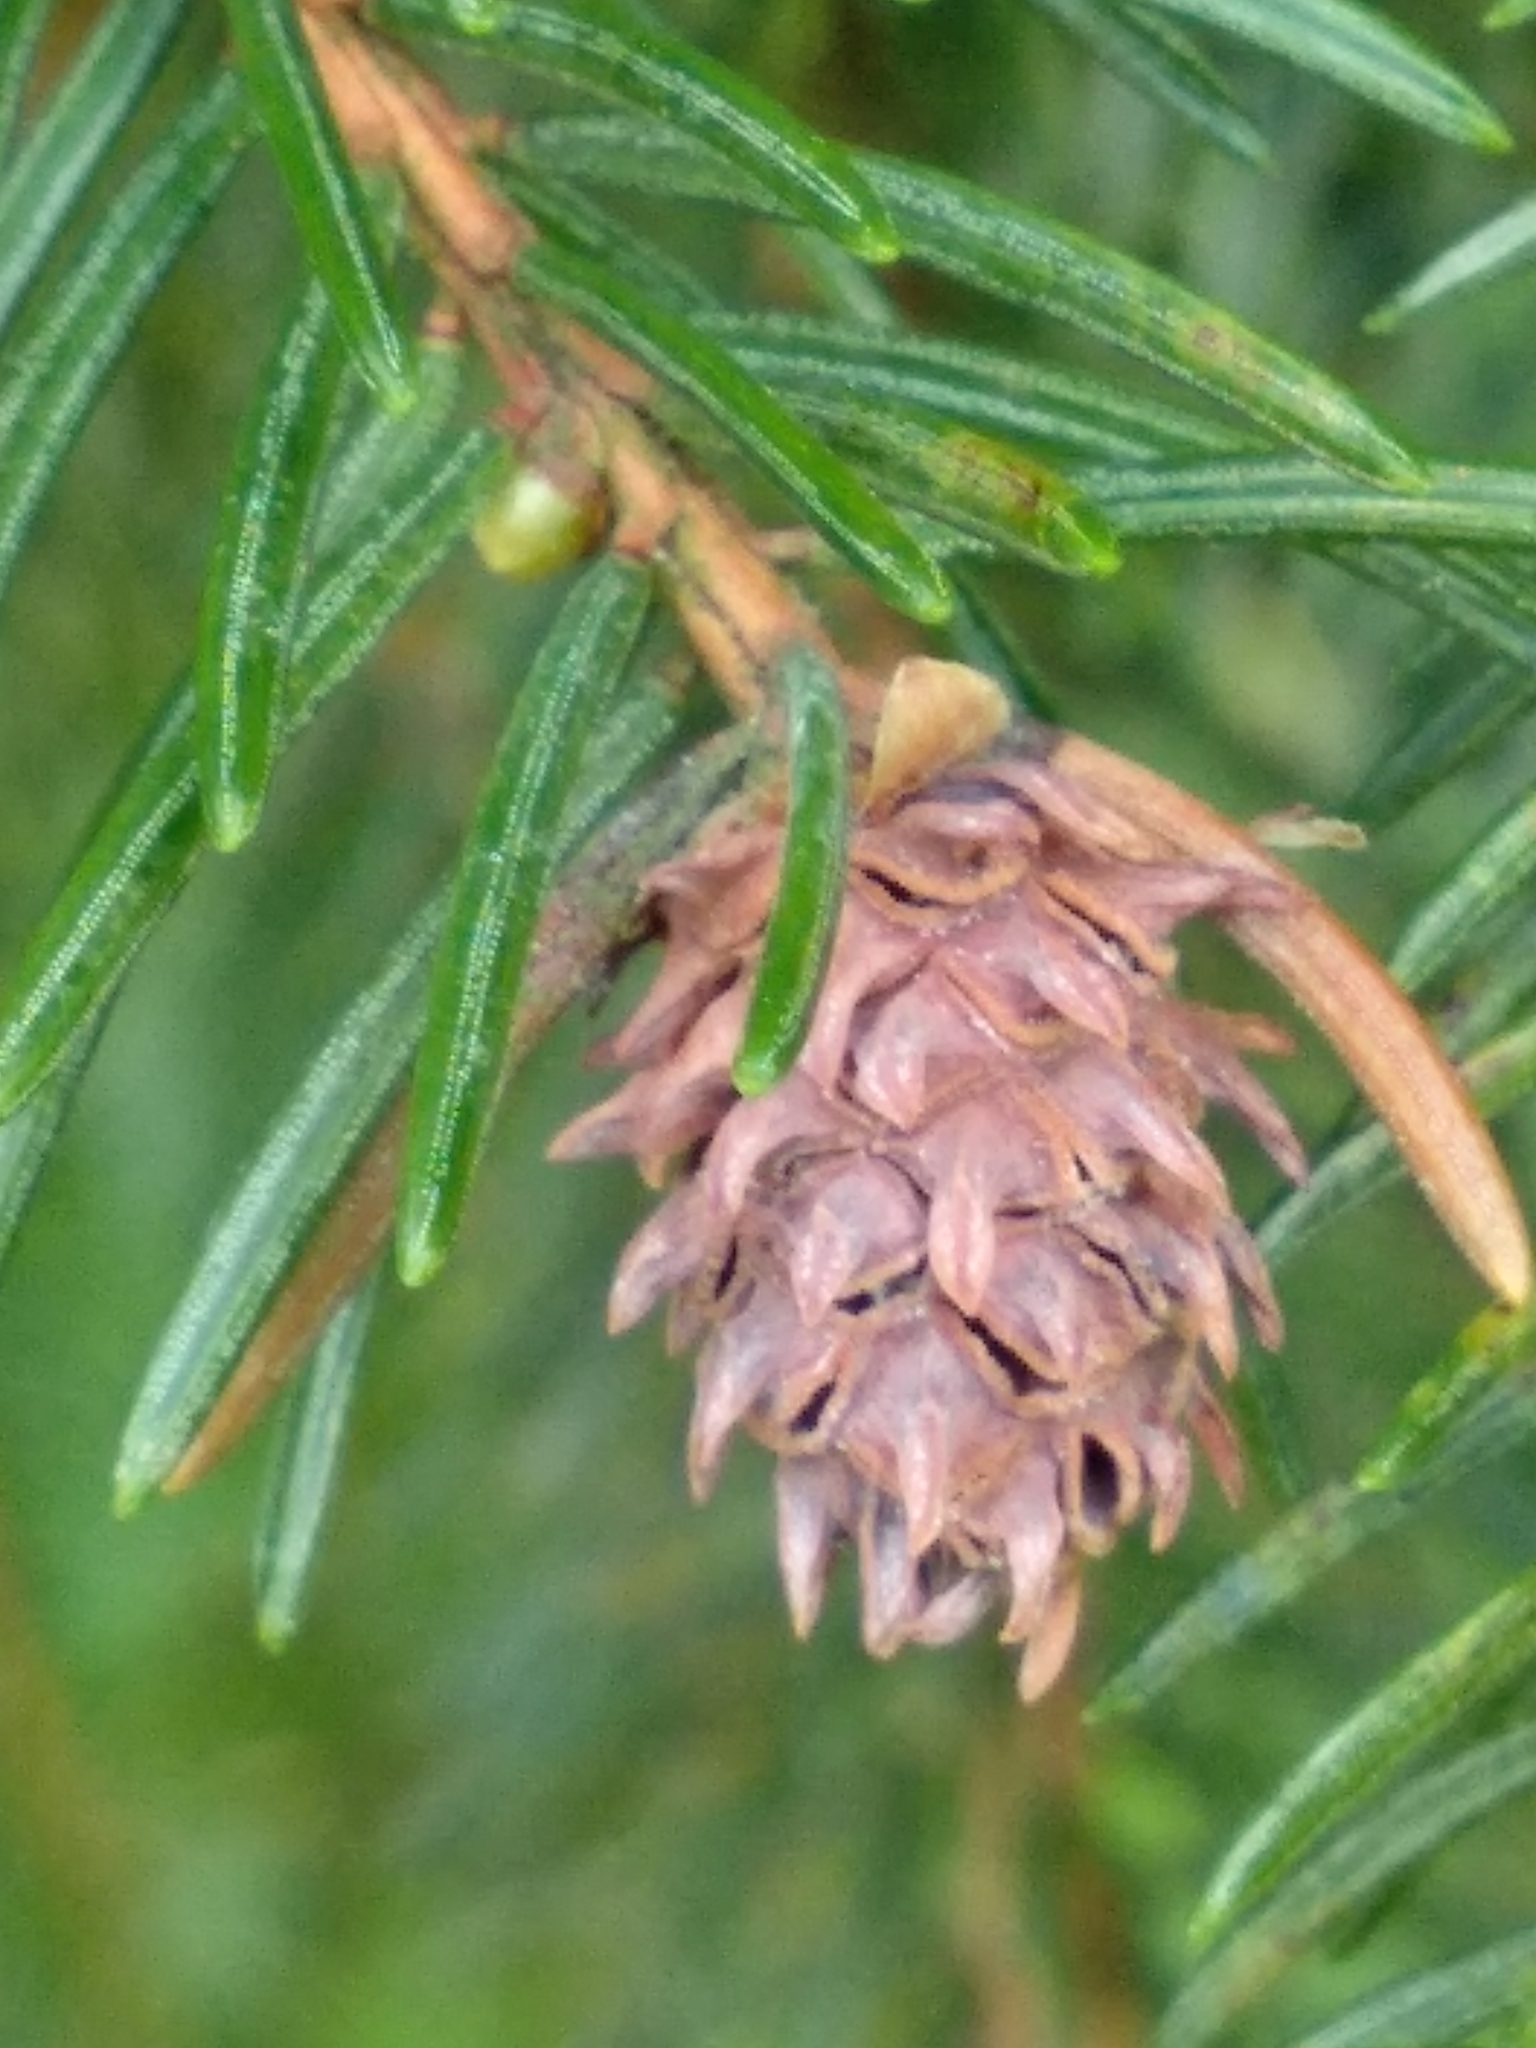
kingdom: Plantae
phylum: Tracheophyta
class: Pinopsida
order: Pinales
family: Pinaceae
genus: Picea
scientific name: Picea abies
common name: Norway spruce
